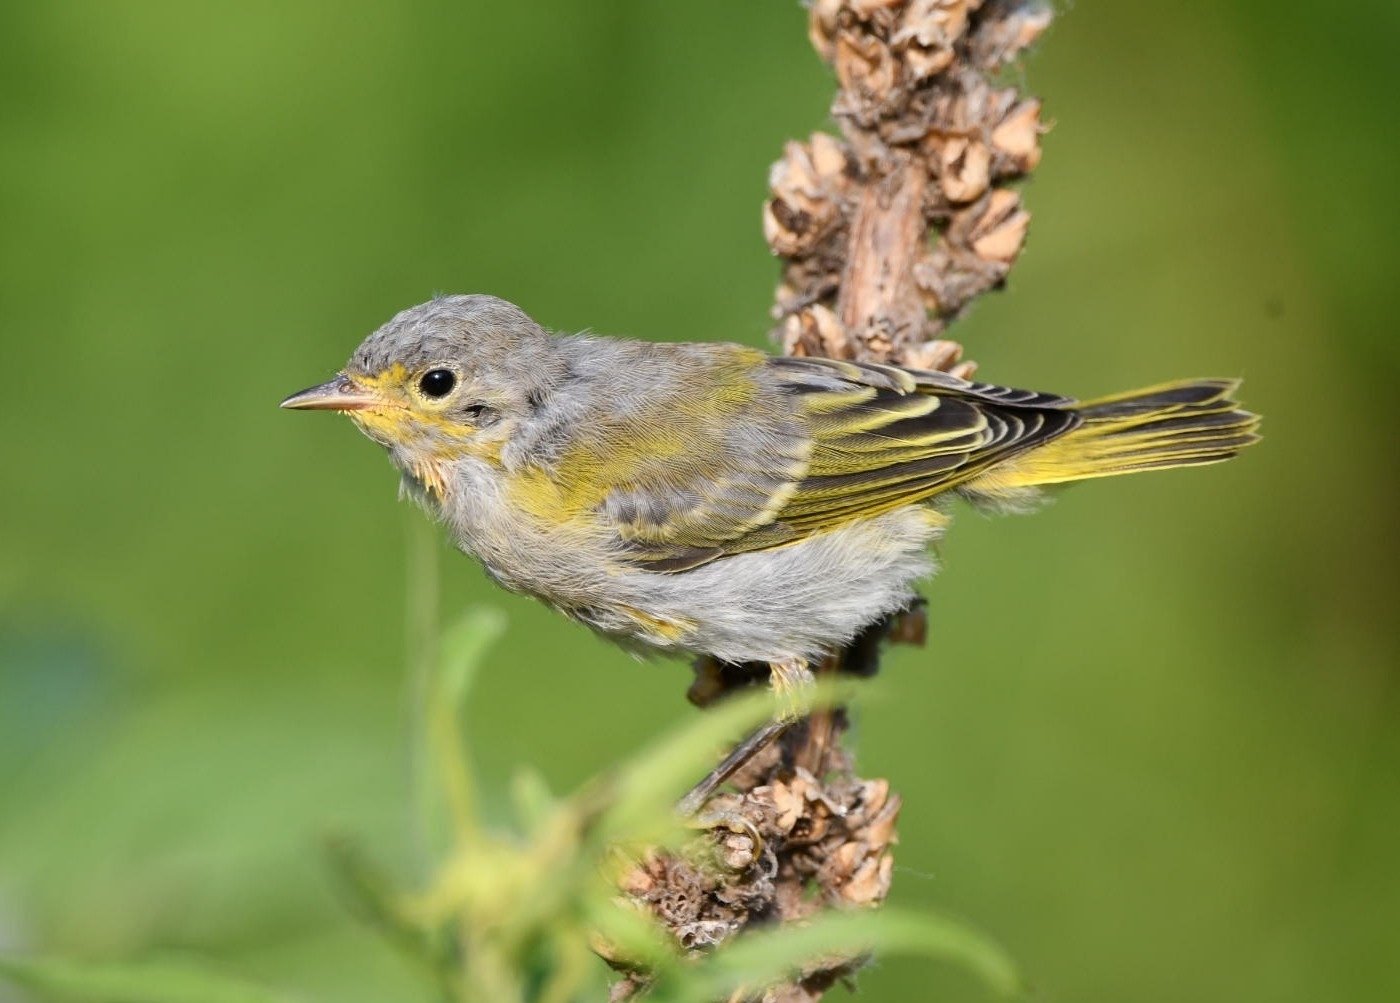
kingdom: Animalia
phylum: Chordata
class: Aves
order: Passeriformes
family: Parulidae
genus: Setophaga
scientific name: Setophaga petechia
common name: Yellow warbler
